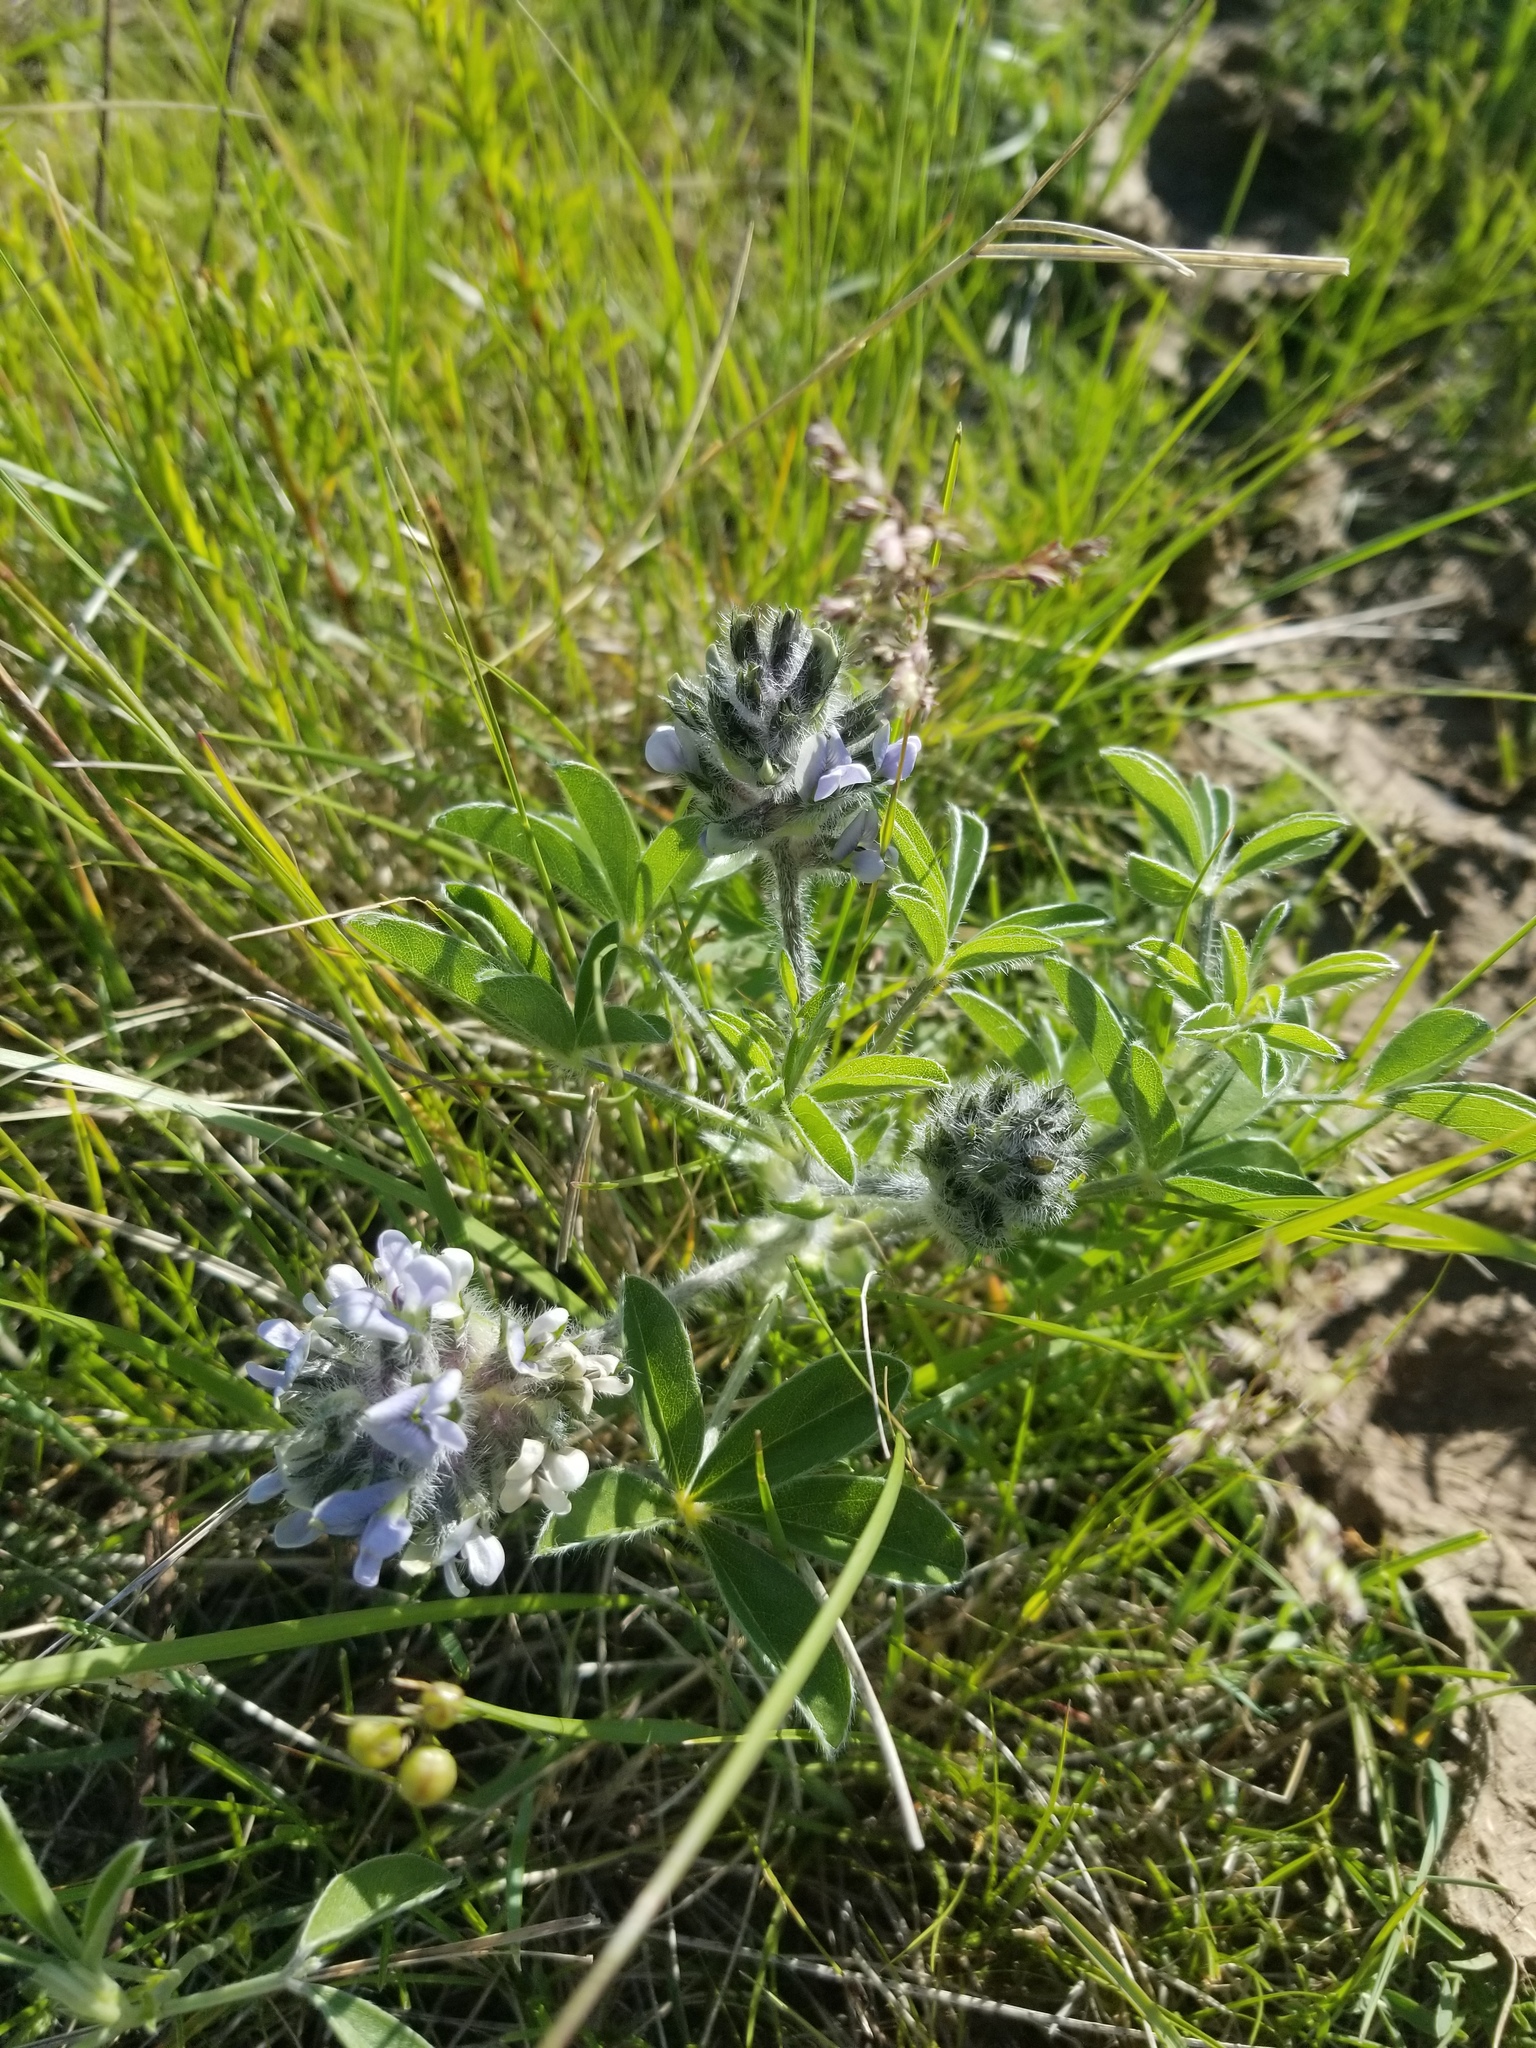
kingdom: Plantae
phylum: Tracheophyta
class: Magnoliopsida
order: Fabales
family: Fabaceae
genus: Pediomelum
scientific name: Pediomelum esculentum
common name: Indian-turnip
